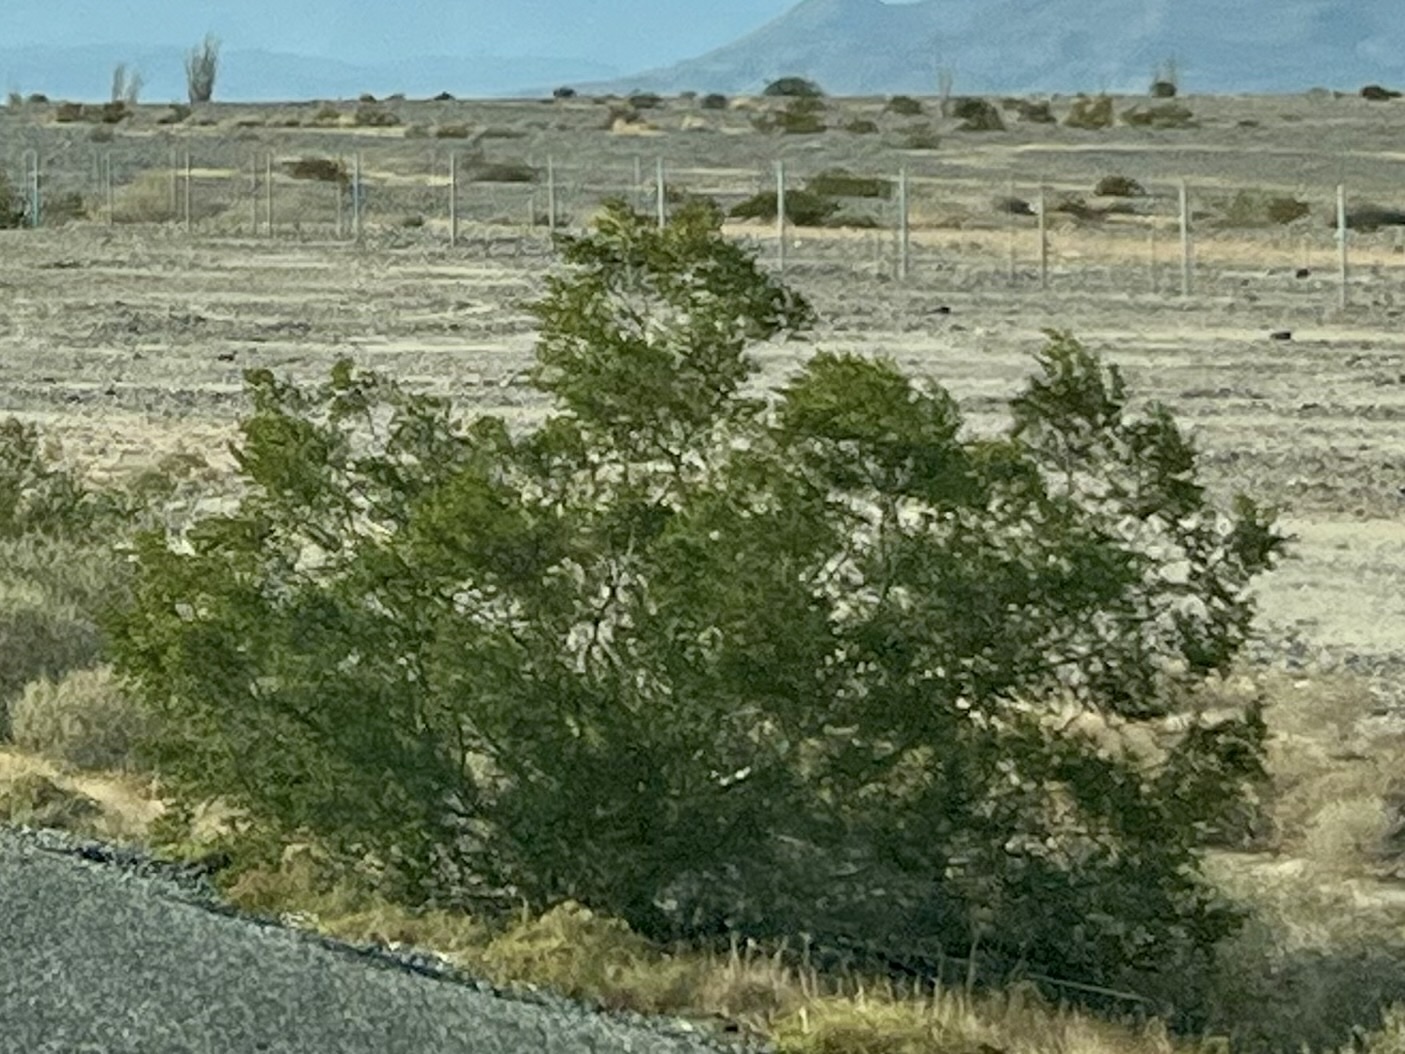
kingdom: Plantae
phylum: Tracheophyta
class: Magnoliopsida
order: Zygophyllales
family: Zygophyllaceae
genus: Larrea
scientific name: Larrea tridentata
